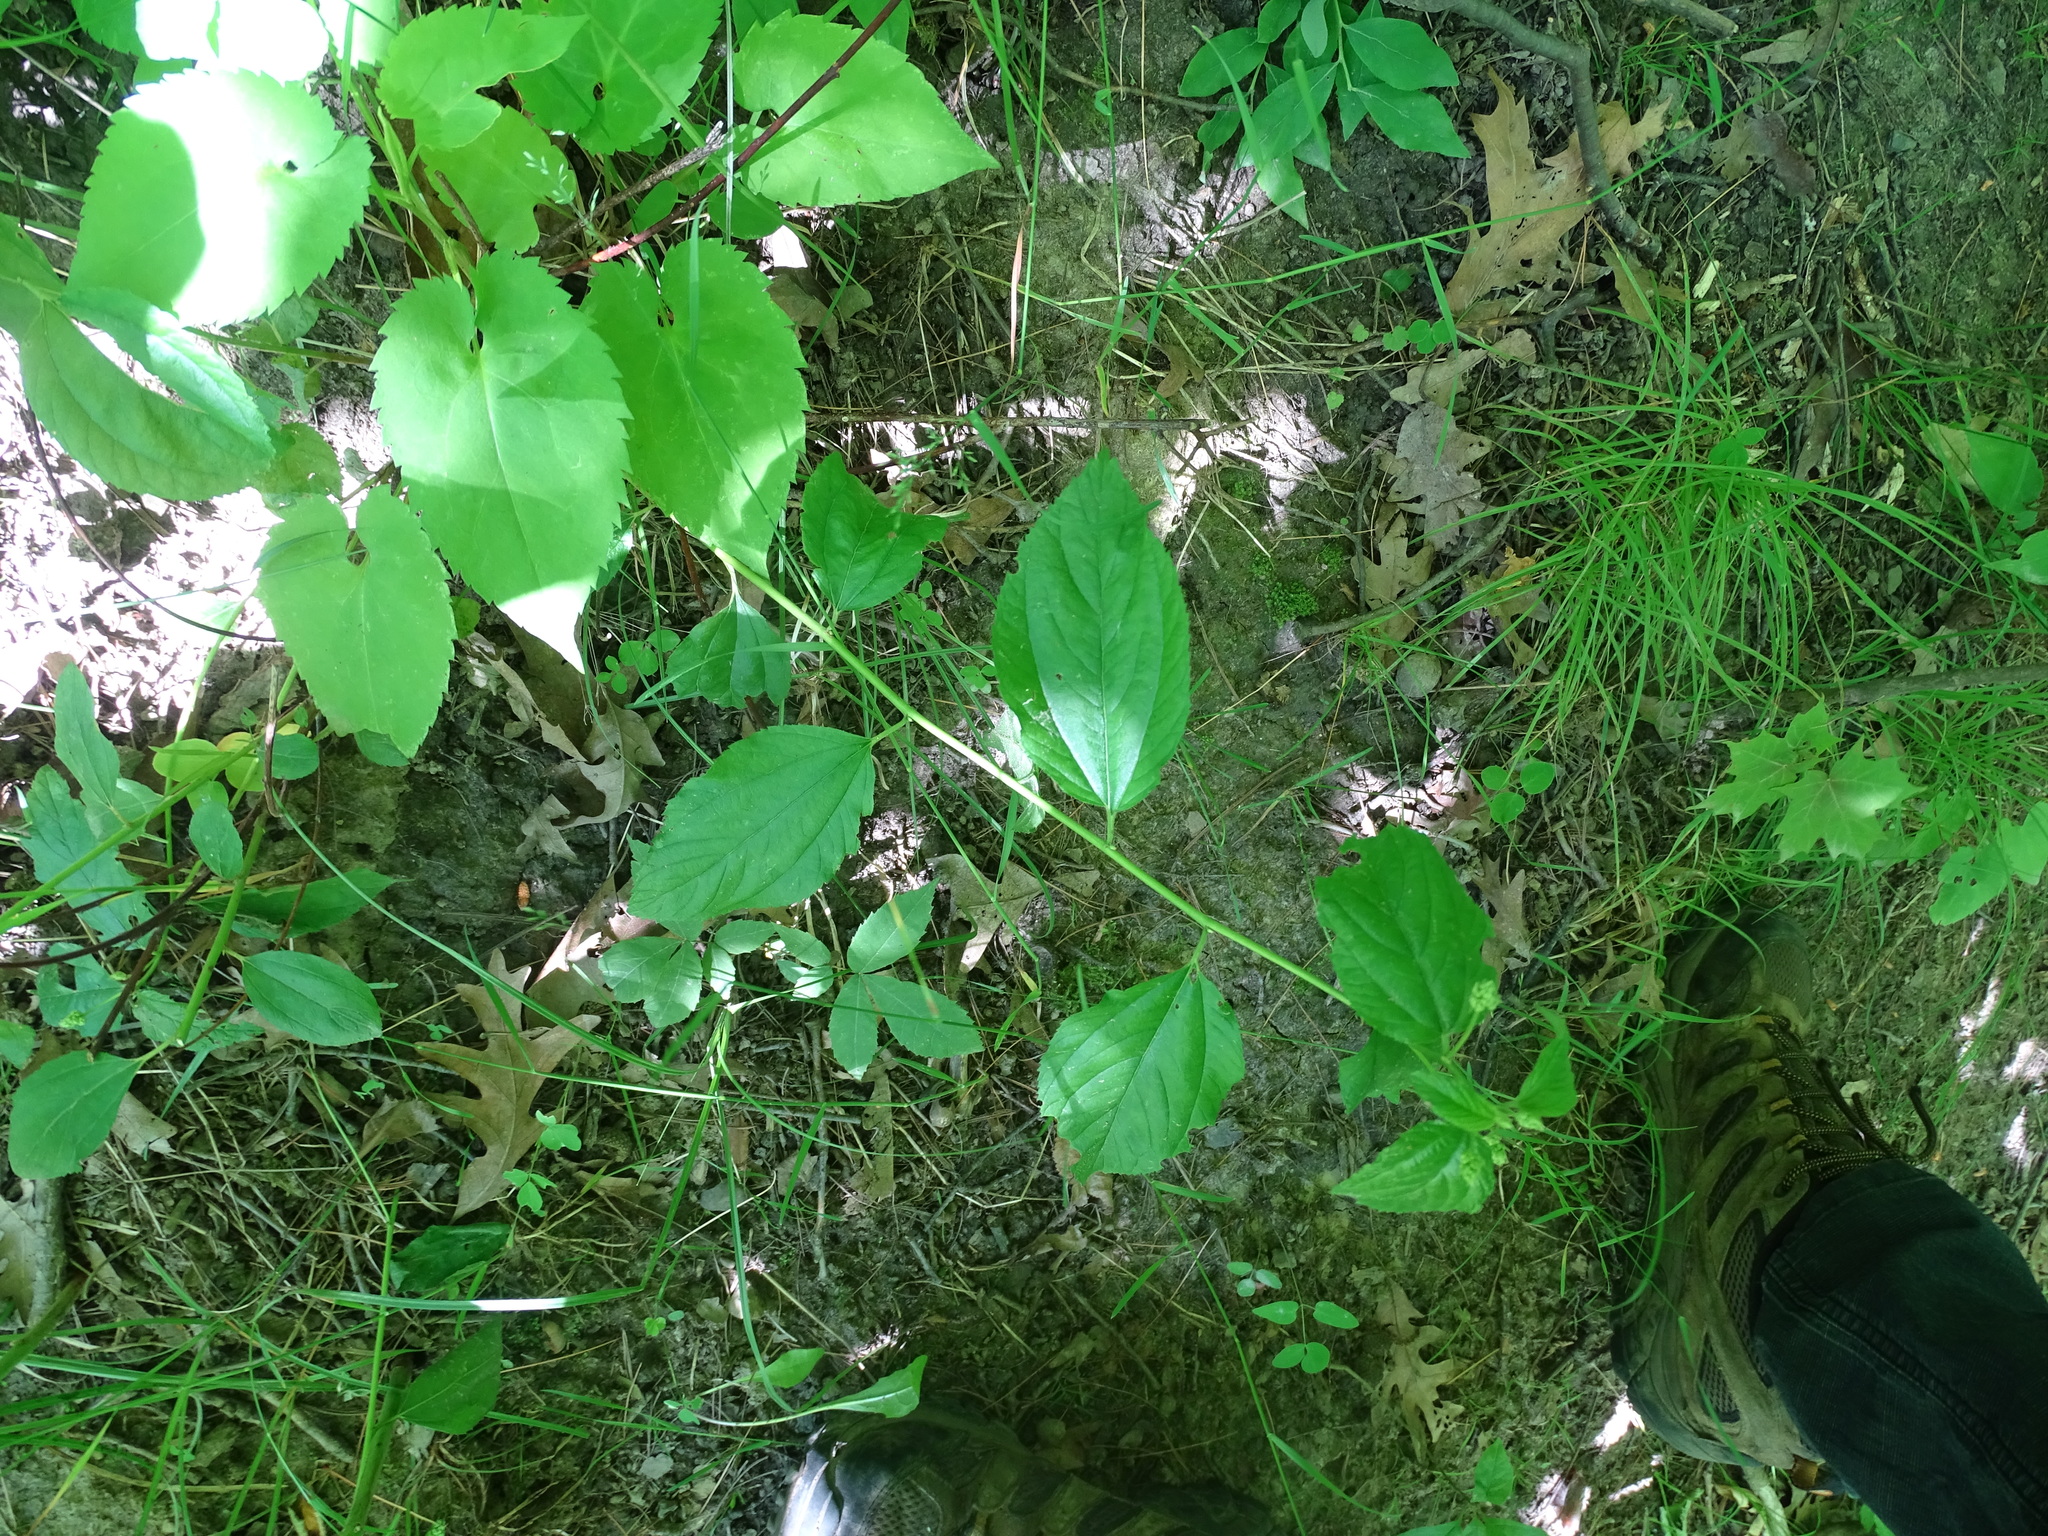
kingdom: Plantae
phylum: Tracheophyta
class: Magnoliopsida
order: Rosales
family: Rhamnaceae
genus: Ceanothus
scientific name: Ceanothus americanus
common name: Redroot
